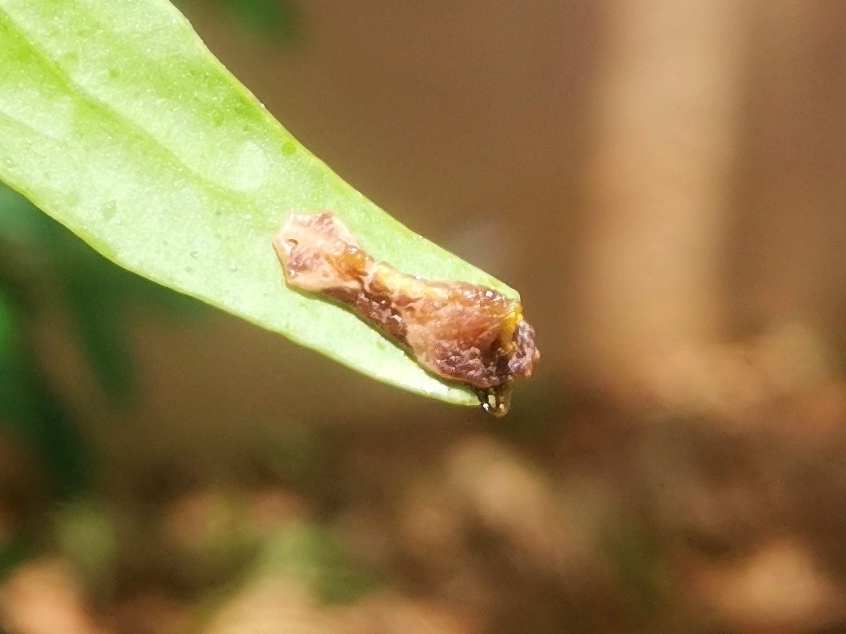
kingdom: Animalia
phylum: Arthropoda
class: Insecta
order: Lepidoptera
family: Lycaenidae
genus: Tajuria
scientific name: Tajuria cippus
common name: Peacock royal
